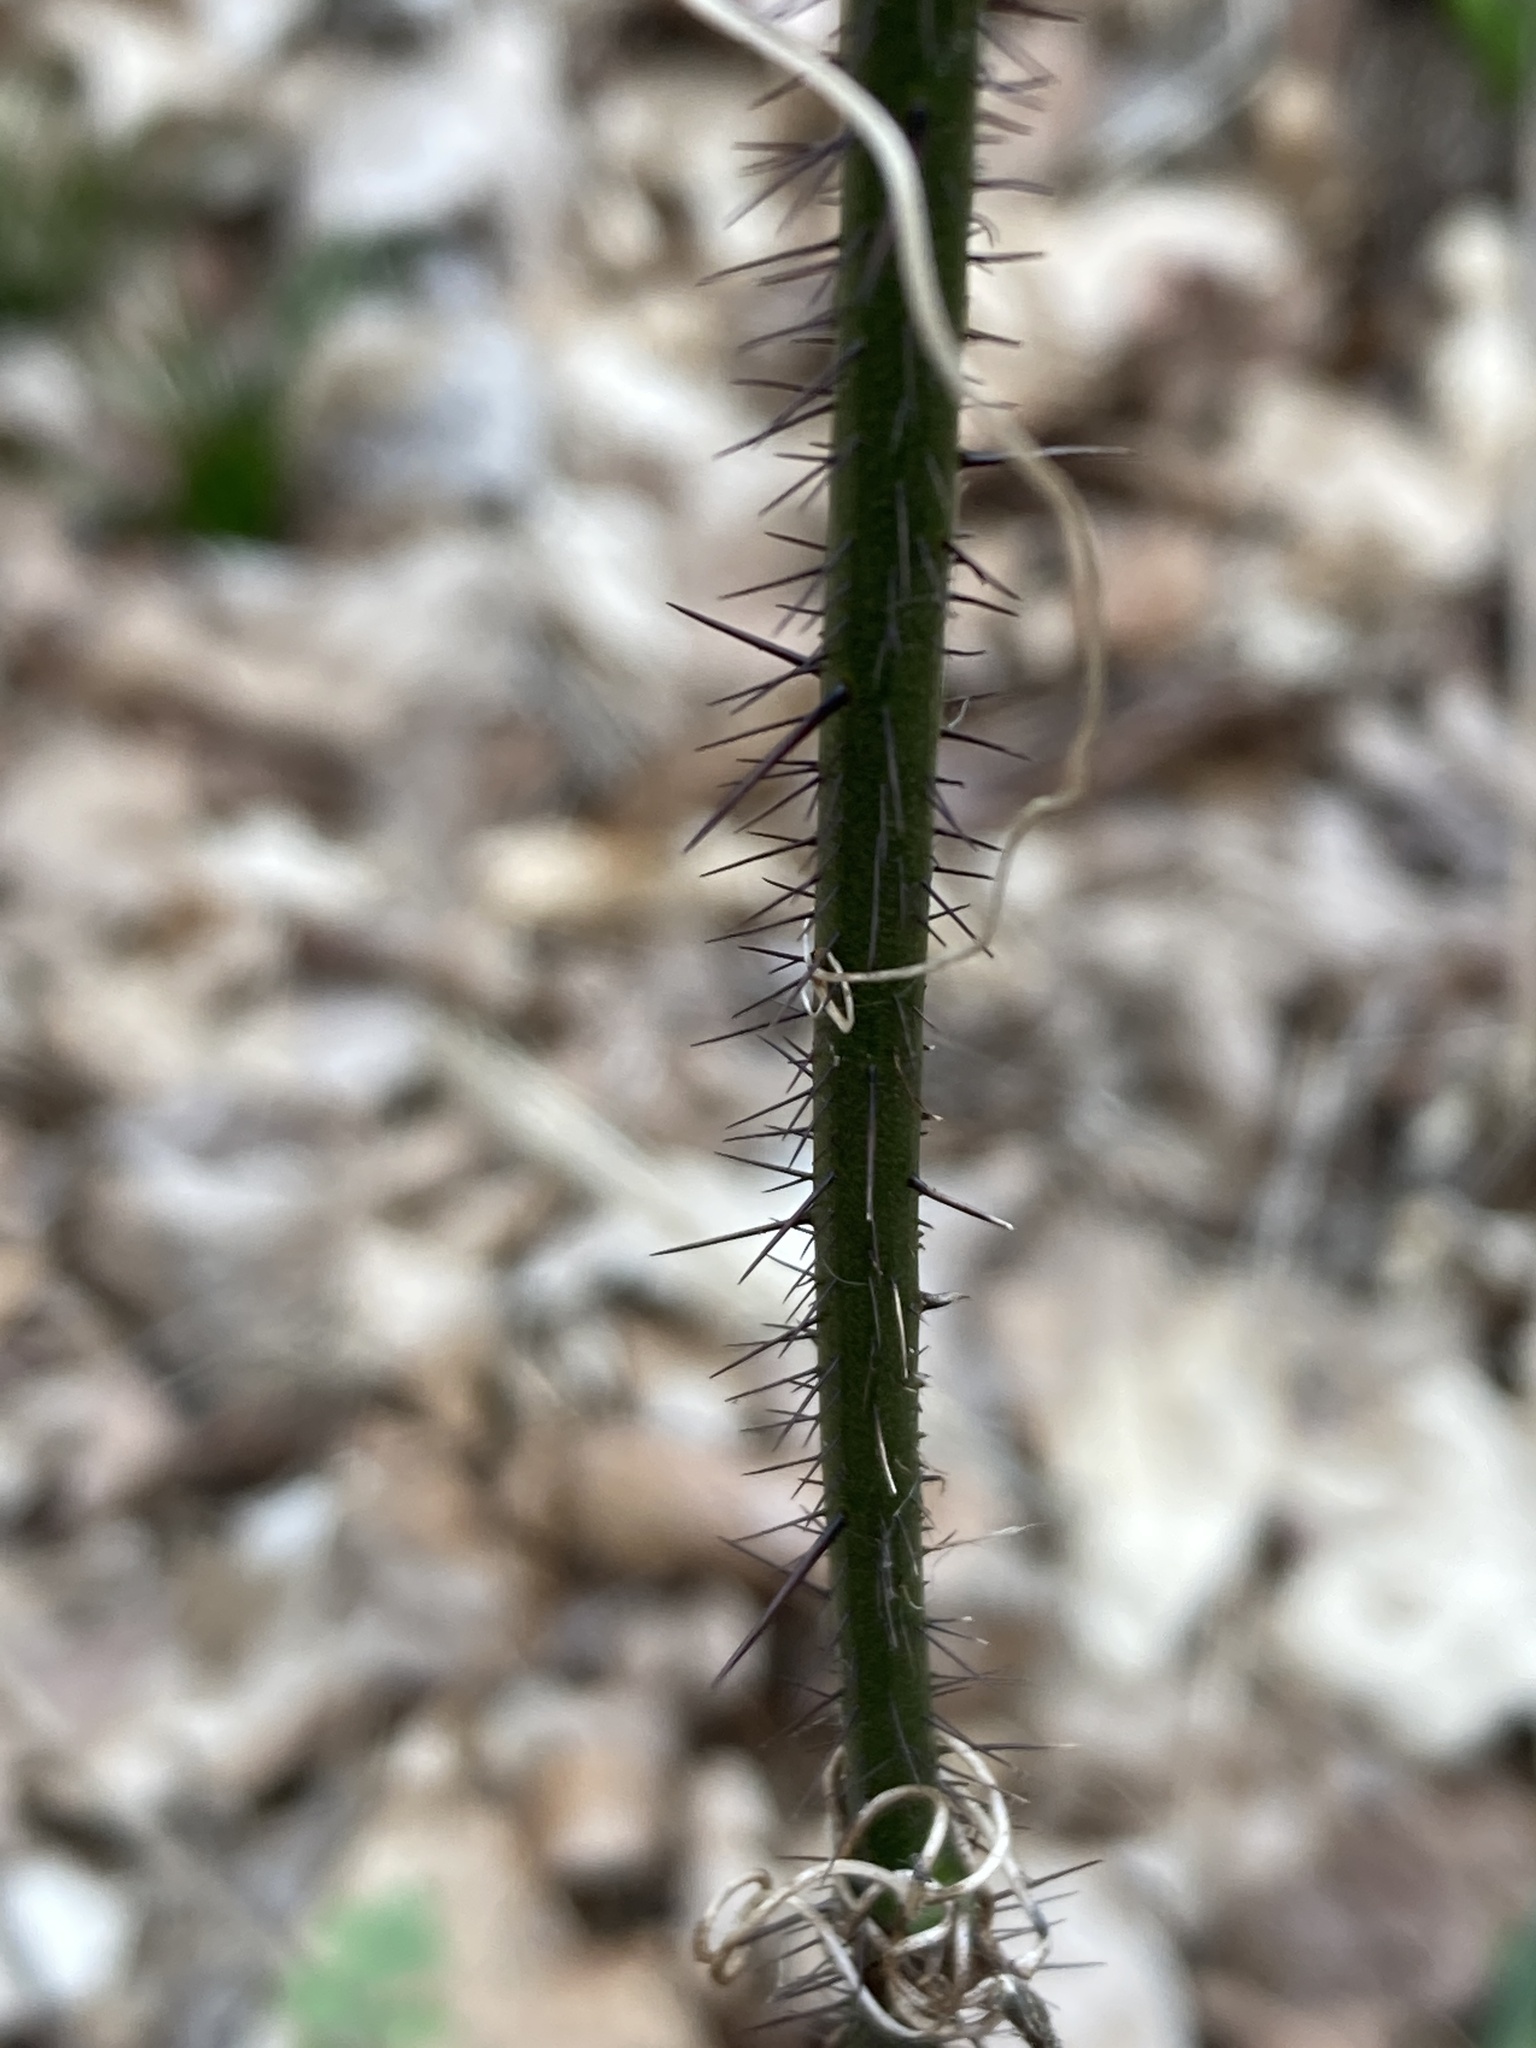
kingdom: Plantae
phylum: Tracheophyta
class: Liliopsida
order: Liliales
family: Smilacaceae
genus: Smilax
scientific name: Smilax tamnoides
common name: Hellfetter
